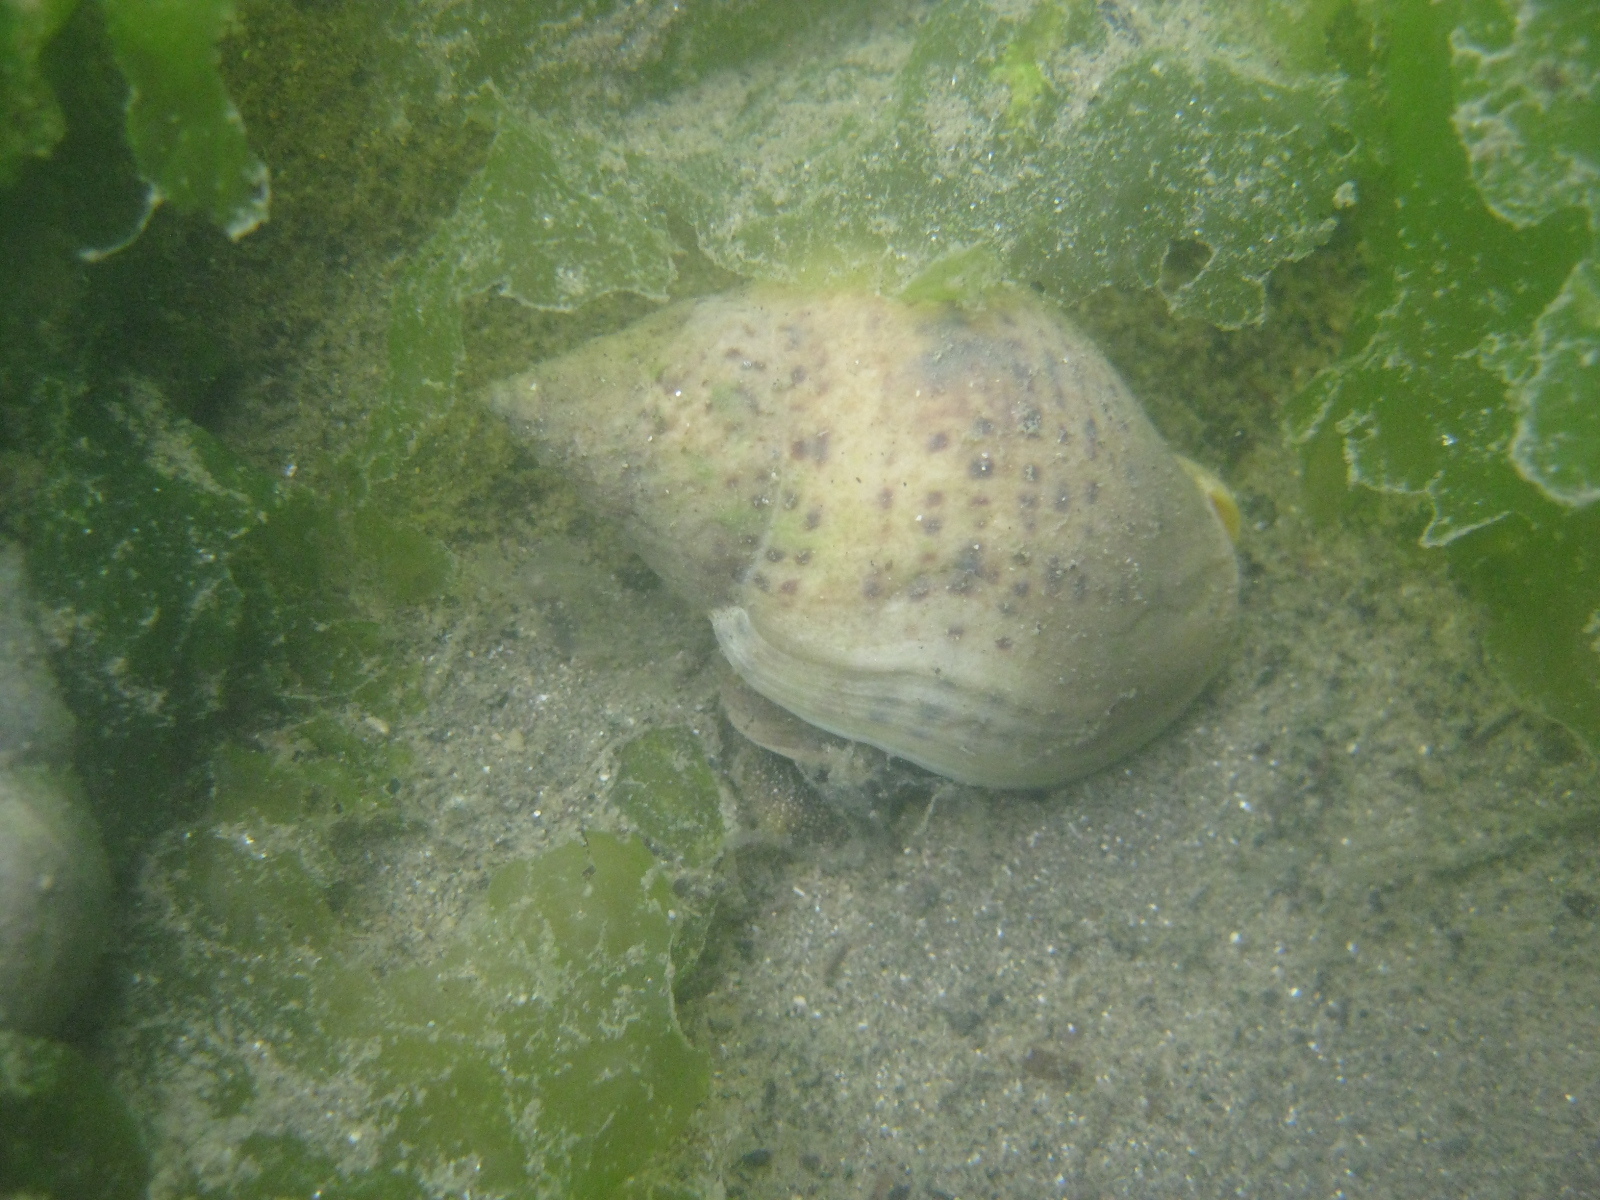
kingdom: Animalia
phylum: Mollusca
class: Gastropoda
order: Neogastropoda
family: Cominellidae
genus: Cominella
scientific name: Cominella adspersa
